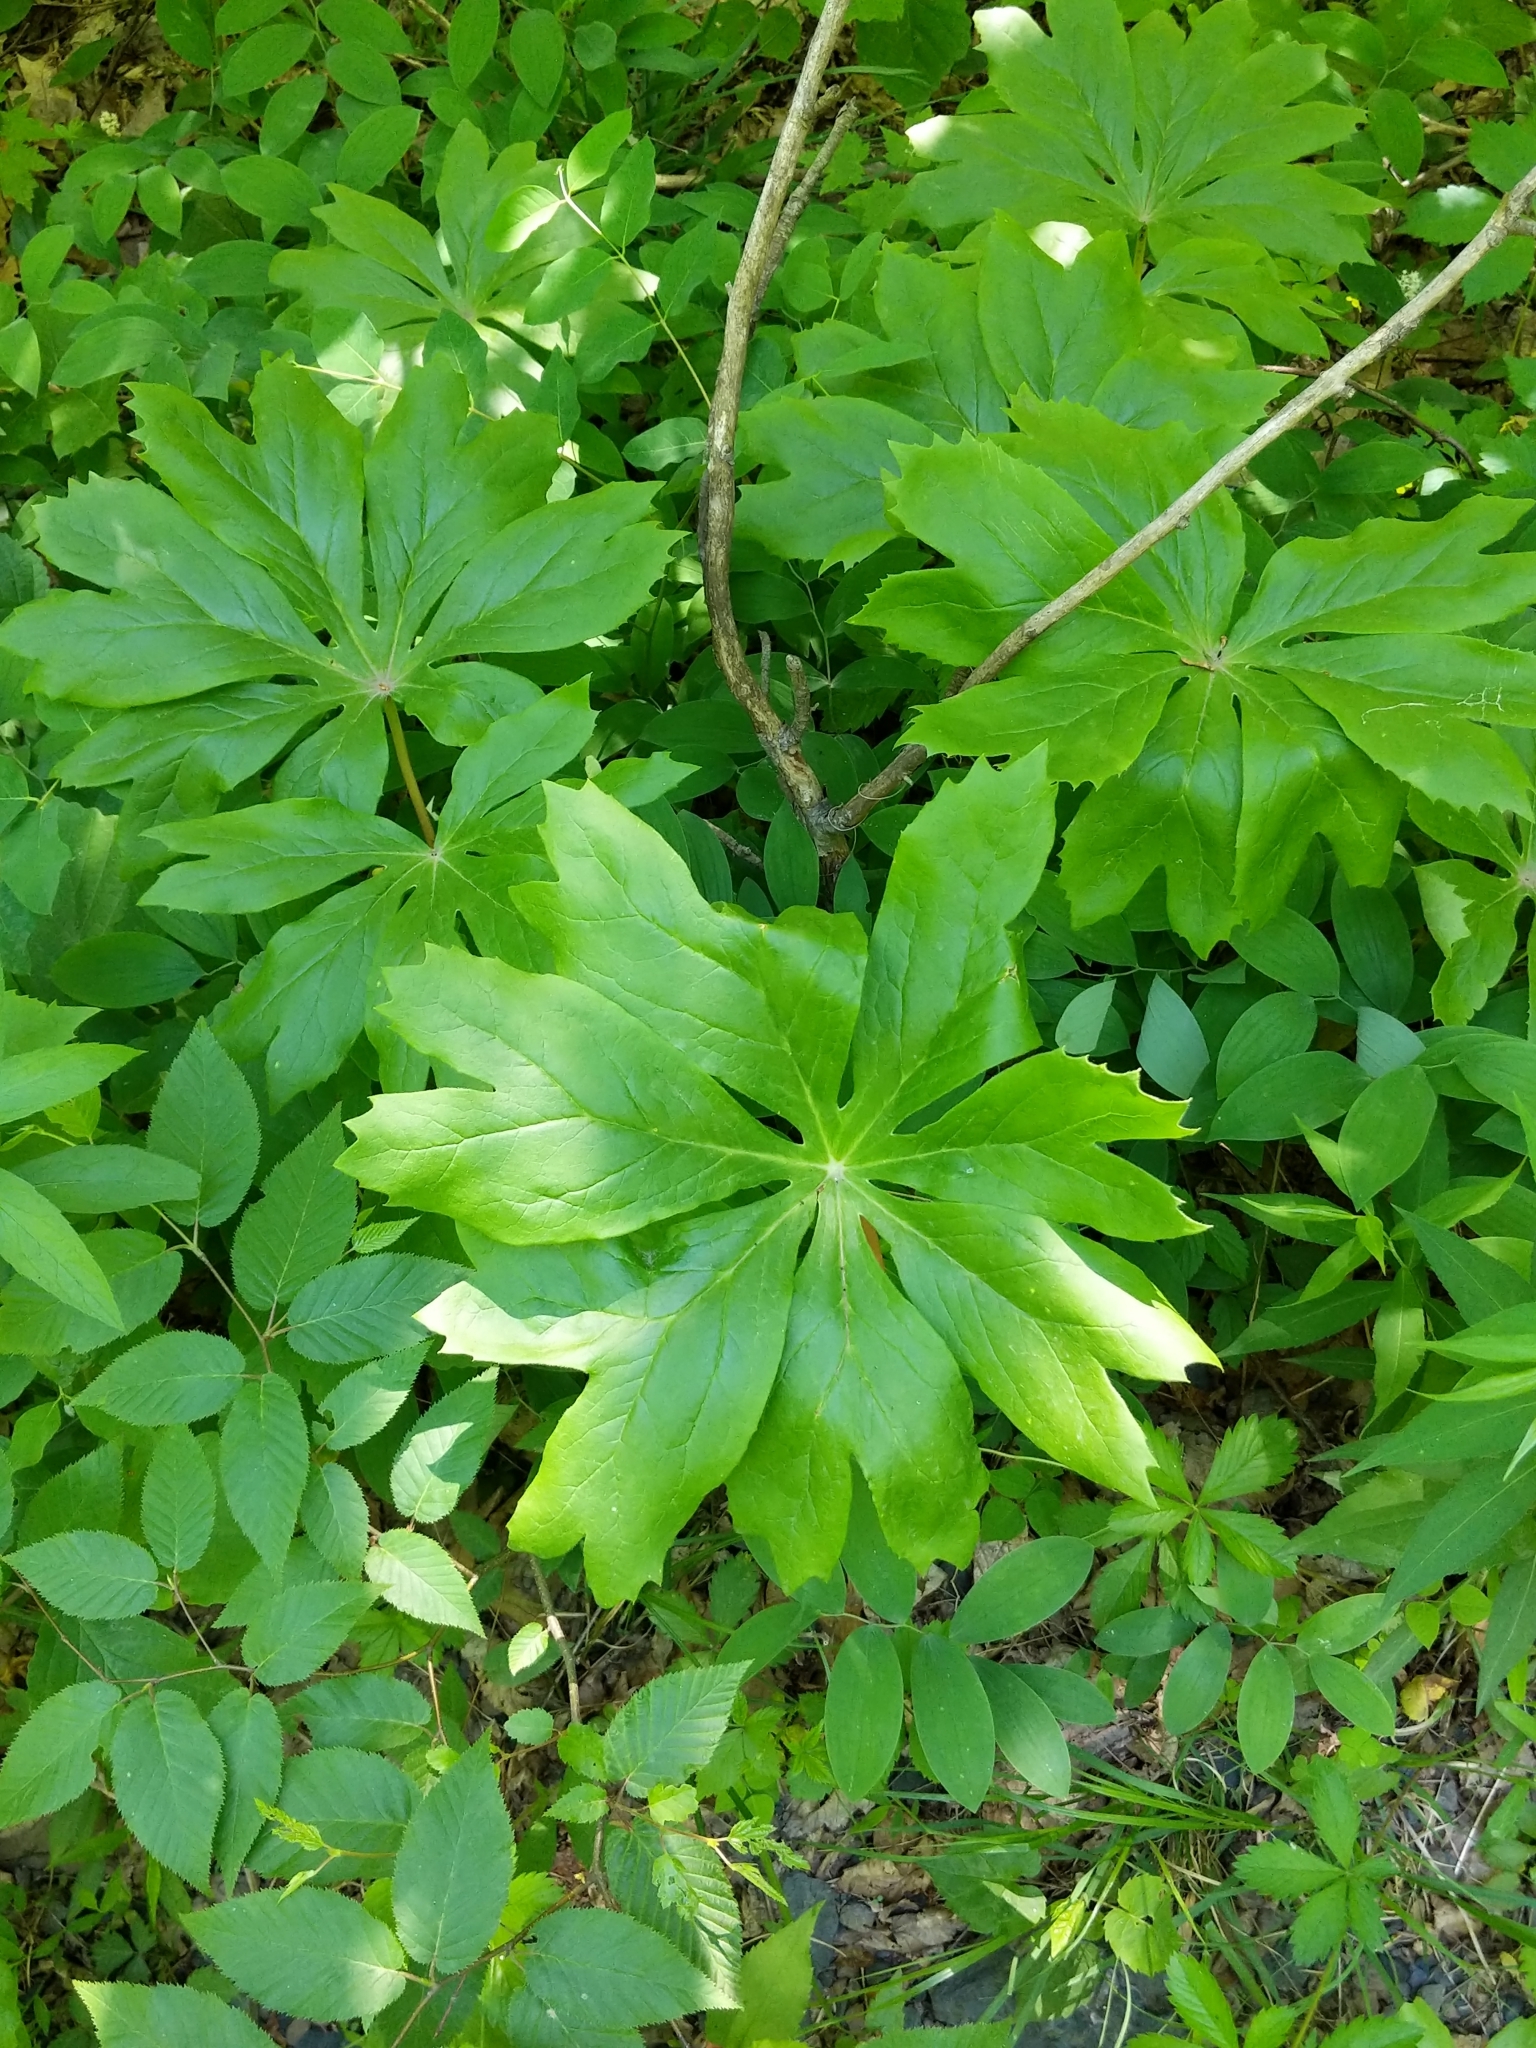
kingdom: Plantae
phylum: Tracheophyta
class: Magnoliopsida
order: Ranunculales
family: Berberidaceae
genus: Podophyllum
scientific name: Podophyllum peltatum
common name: Wild mandrake
